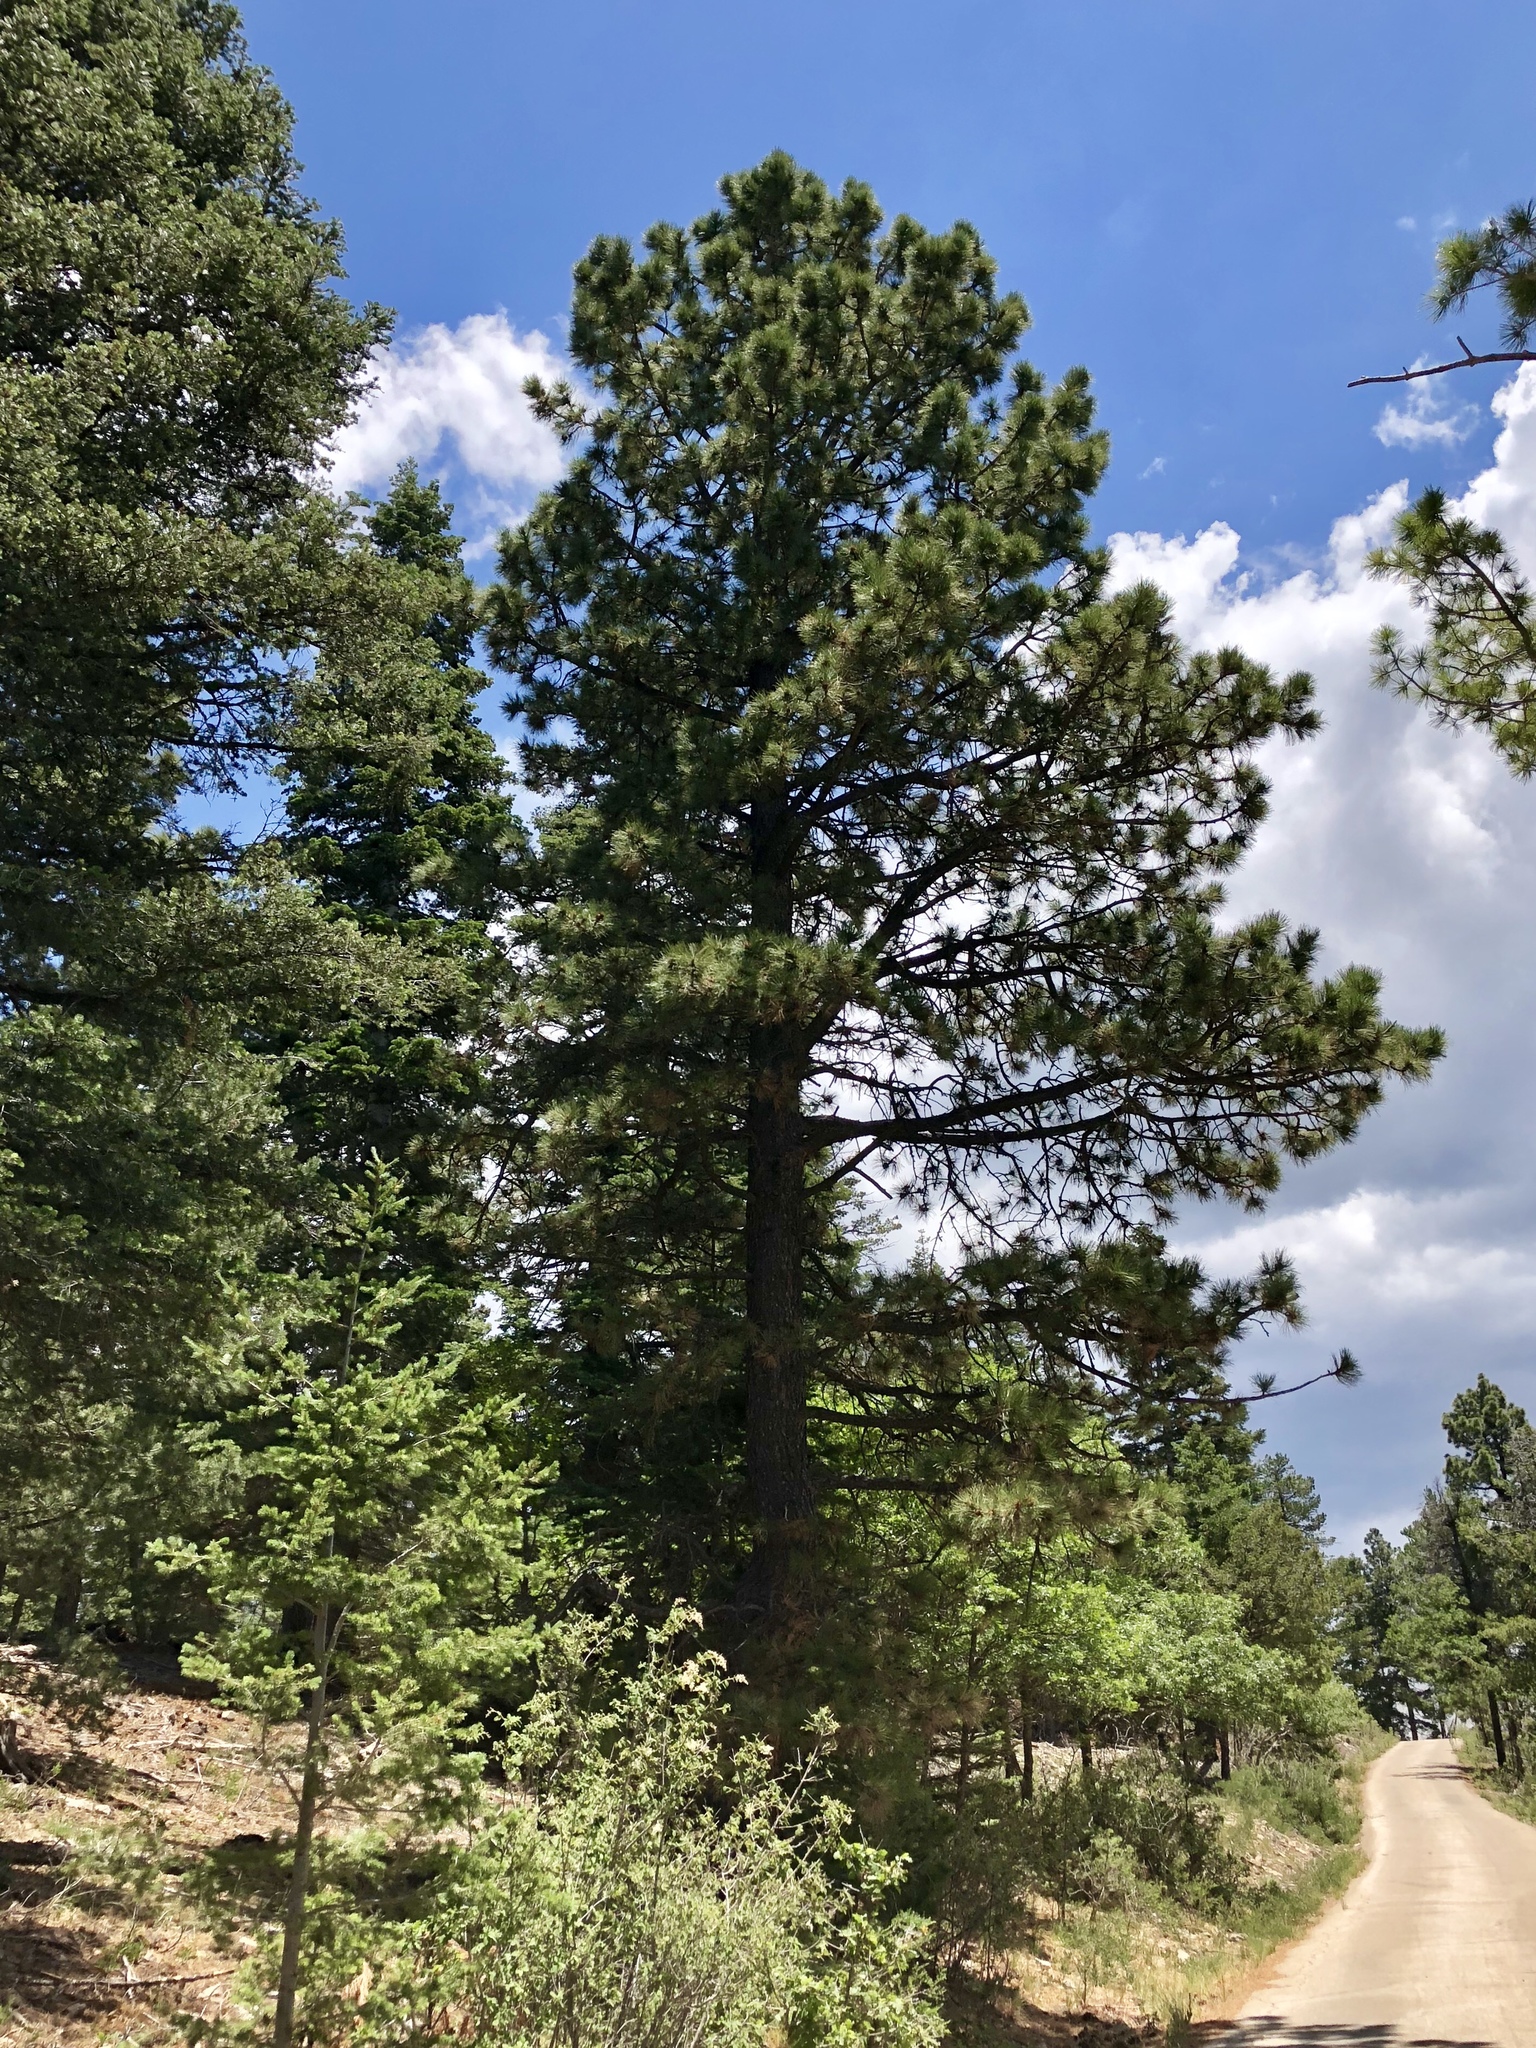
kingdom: Plantae
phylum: Tracheophyta
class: Pinopsida
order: Pinales
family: Pinaceae
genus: Pinus
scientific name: Pinus ponderosa
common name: Western yellow-pine
